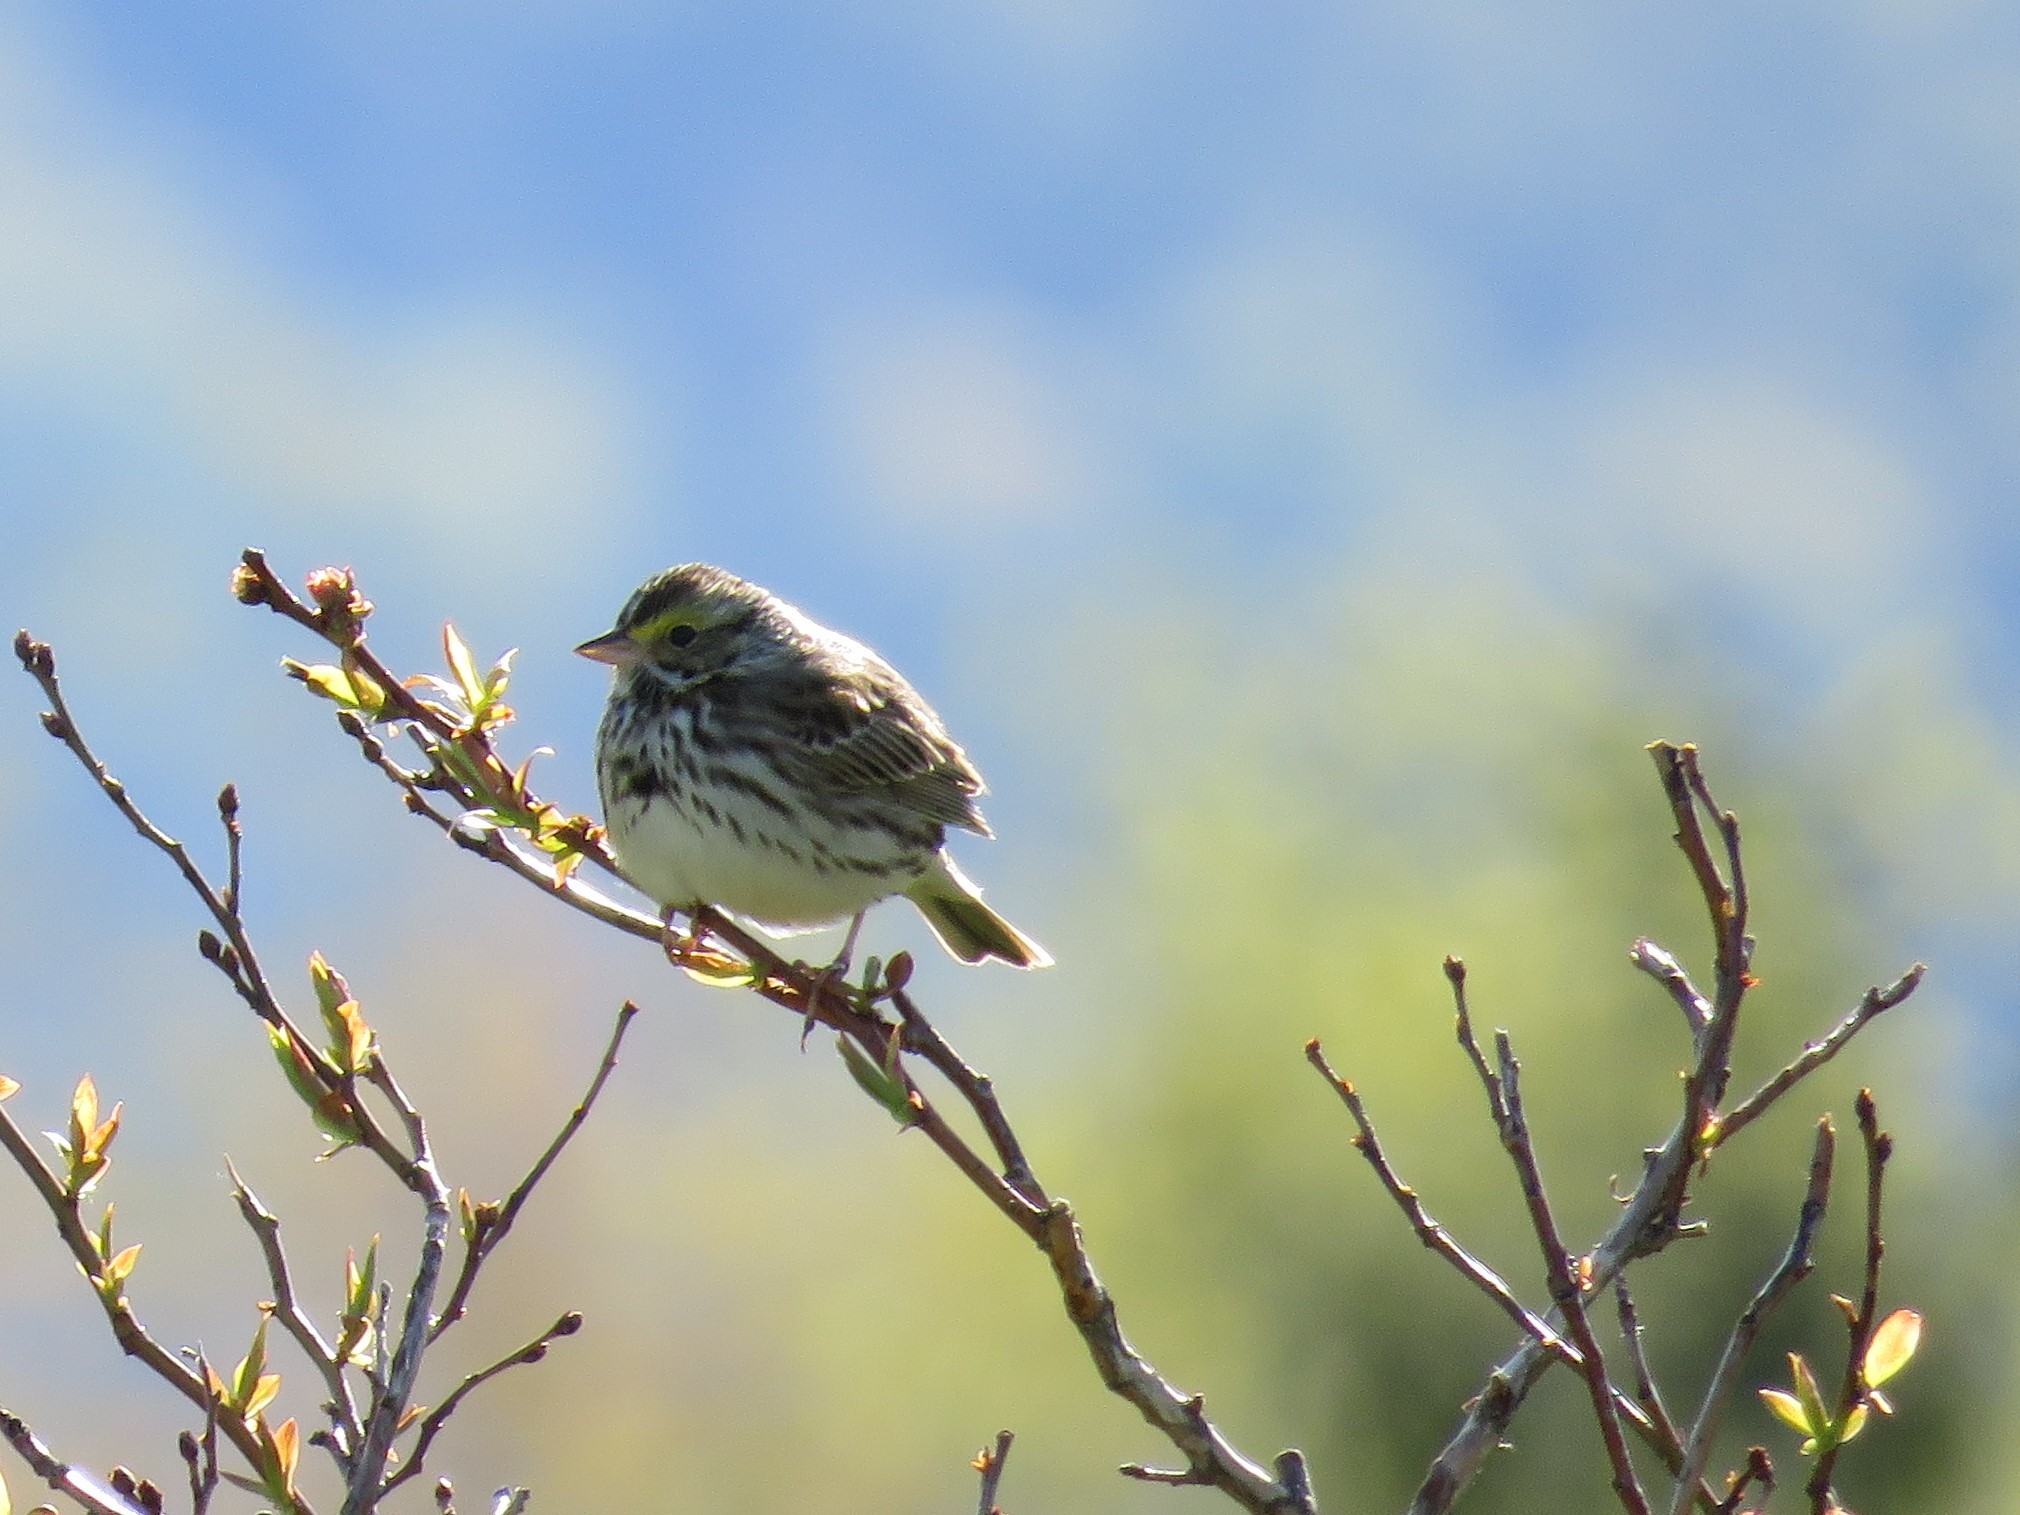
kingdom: Animalia
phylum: Chordata
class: Aves
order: Passeriformes
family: Passerellidae
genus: Passerculus
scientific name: Passerculus sandwichensis
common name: Savannah sparrow
